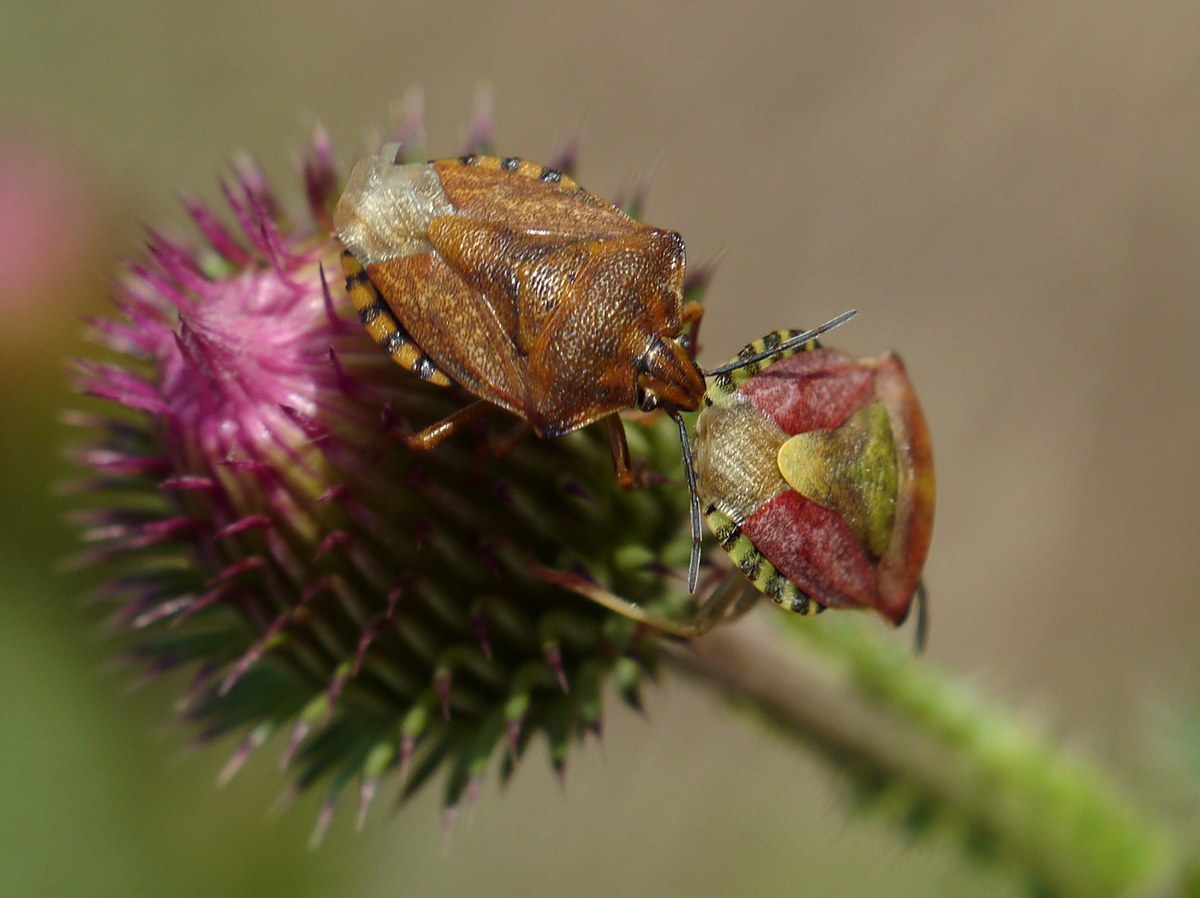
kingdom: Animalia
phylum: Arthropoda
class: Insecta
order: Hemiptera
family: Pentatomidae
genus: Carpocoris
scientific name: Carpocoris purpureipennis
